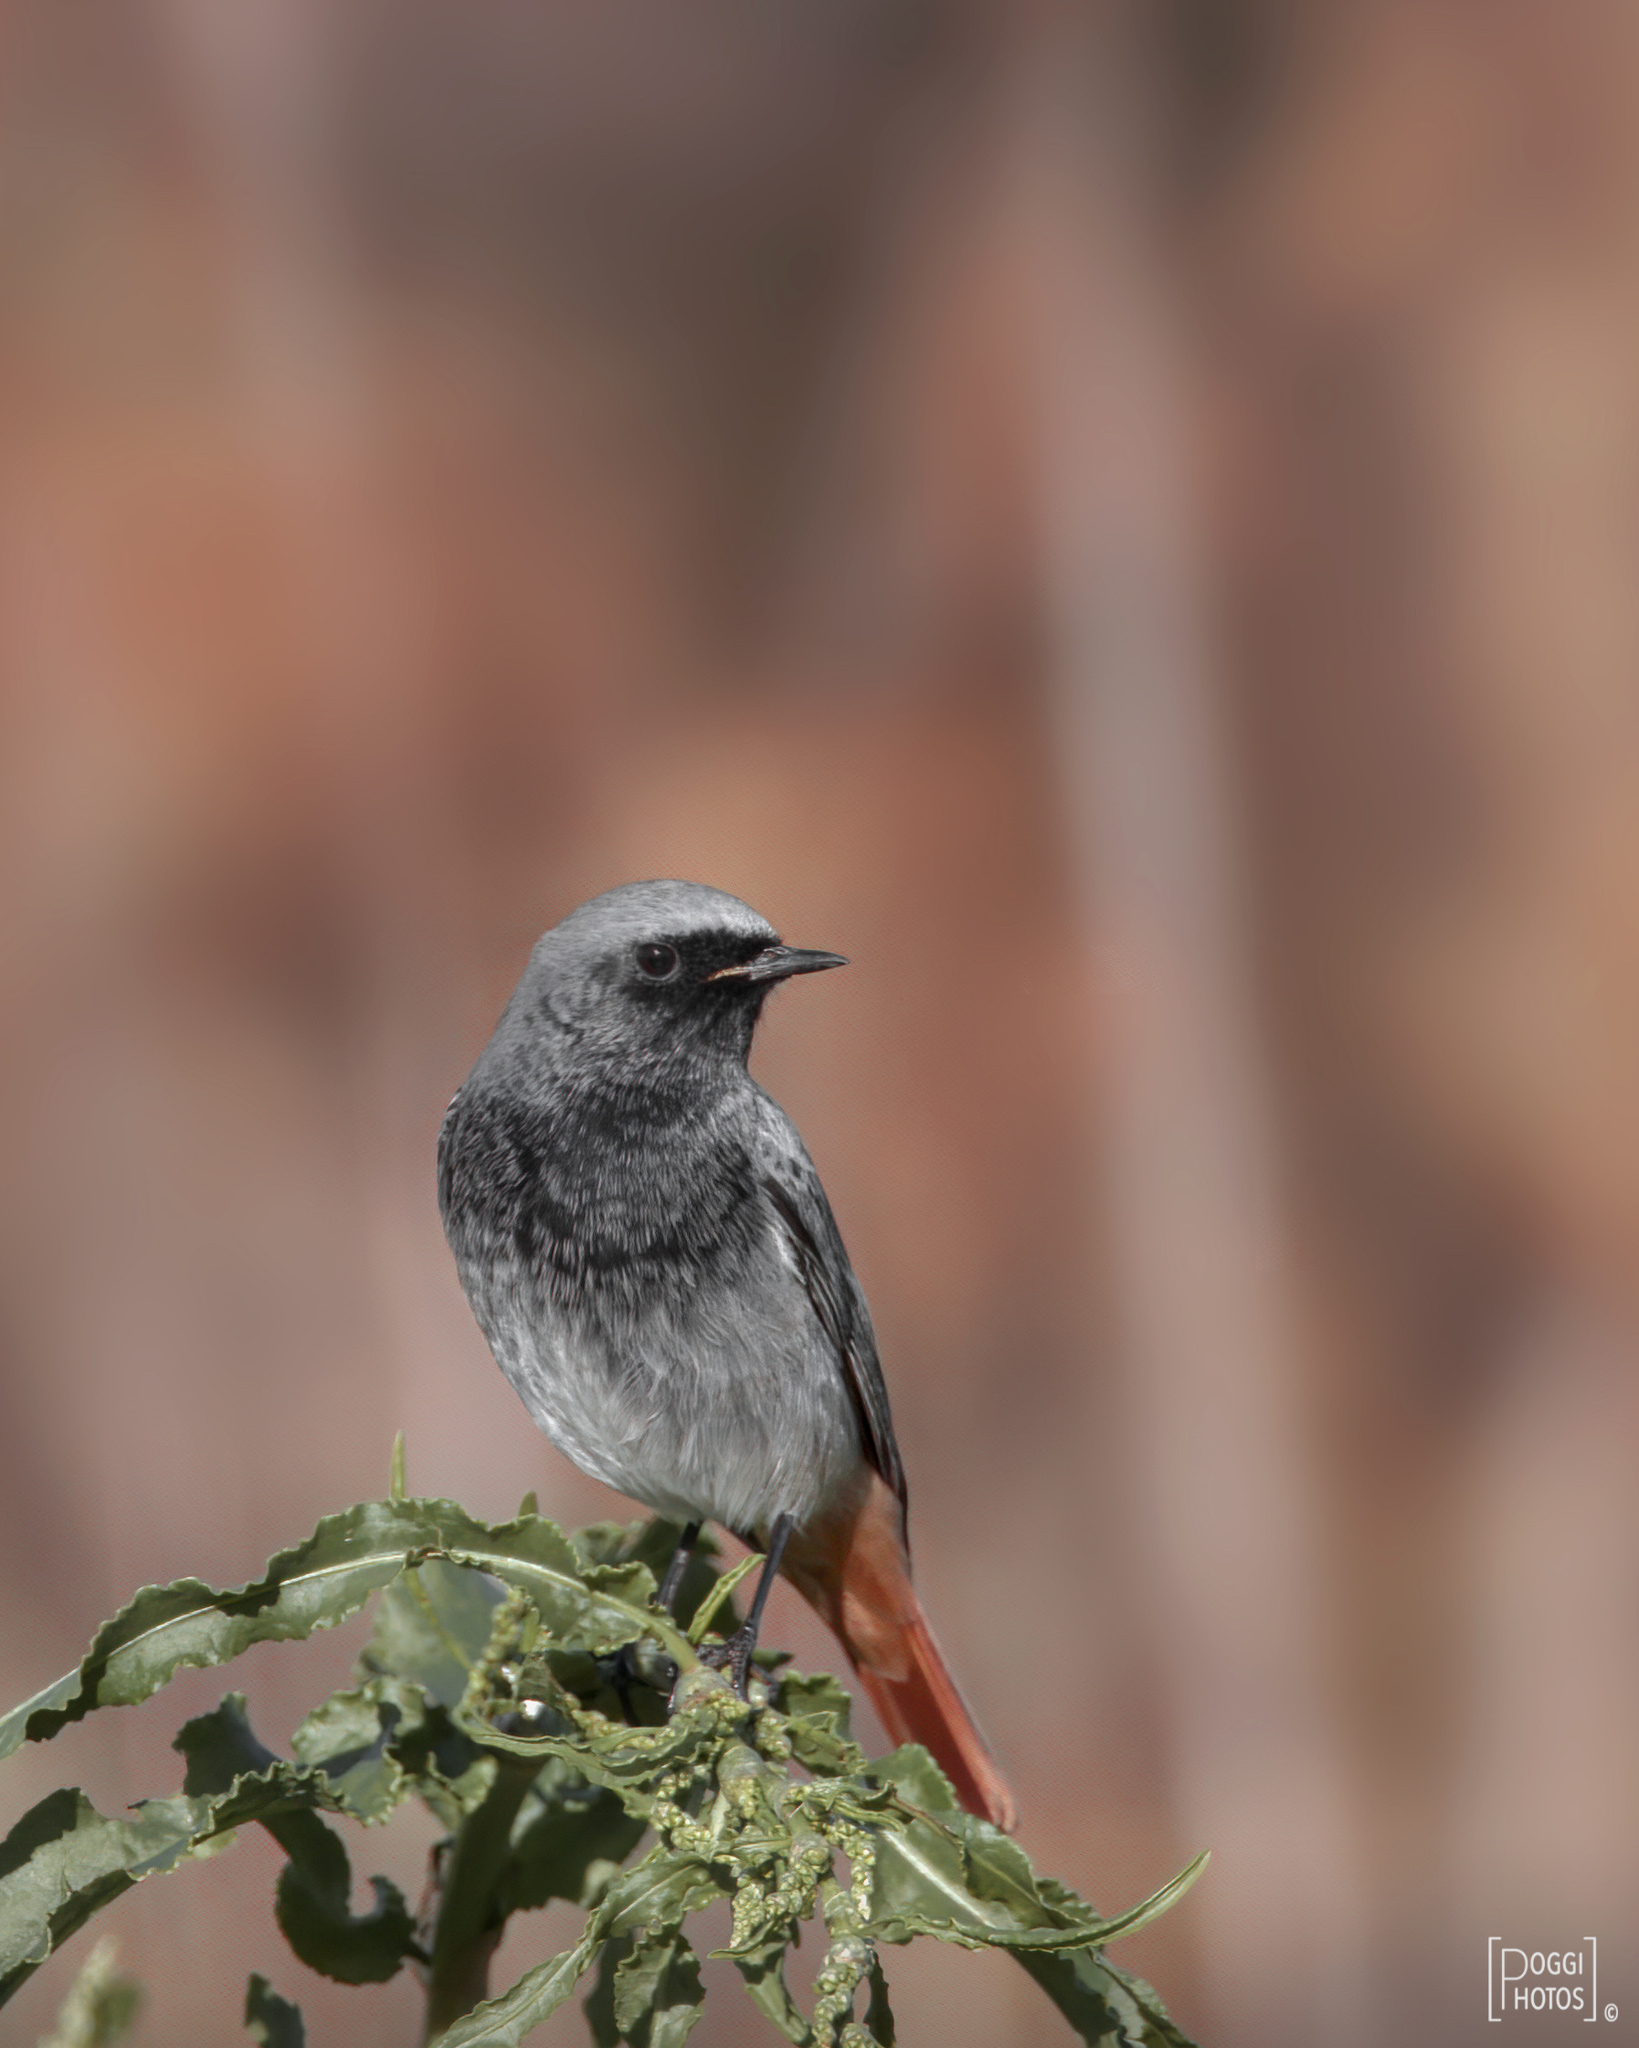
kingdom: Animalia
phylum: Chordata
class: Aves
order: Passeriformes
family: Muscicapidae
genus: Phoenicurus
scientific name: Phoenicurus ochruros
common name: Black redstart
